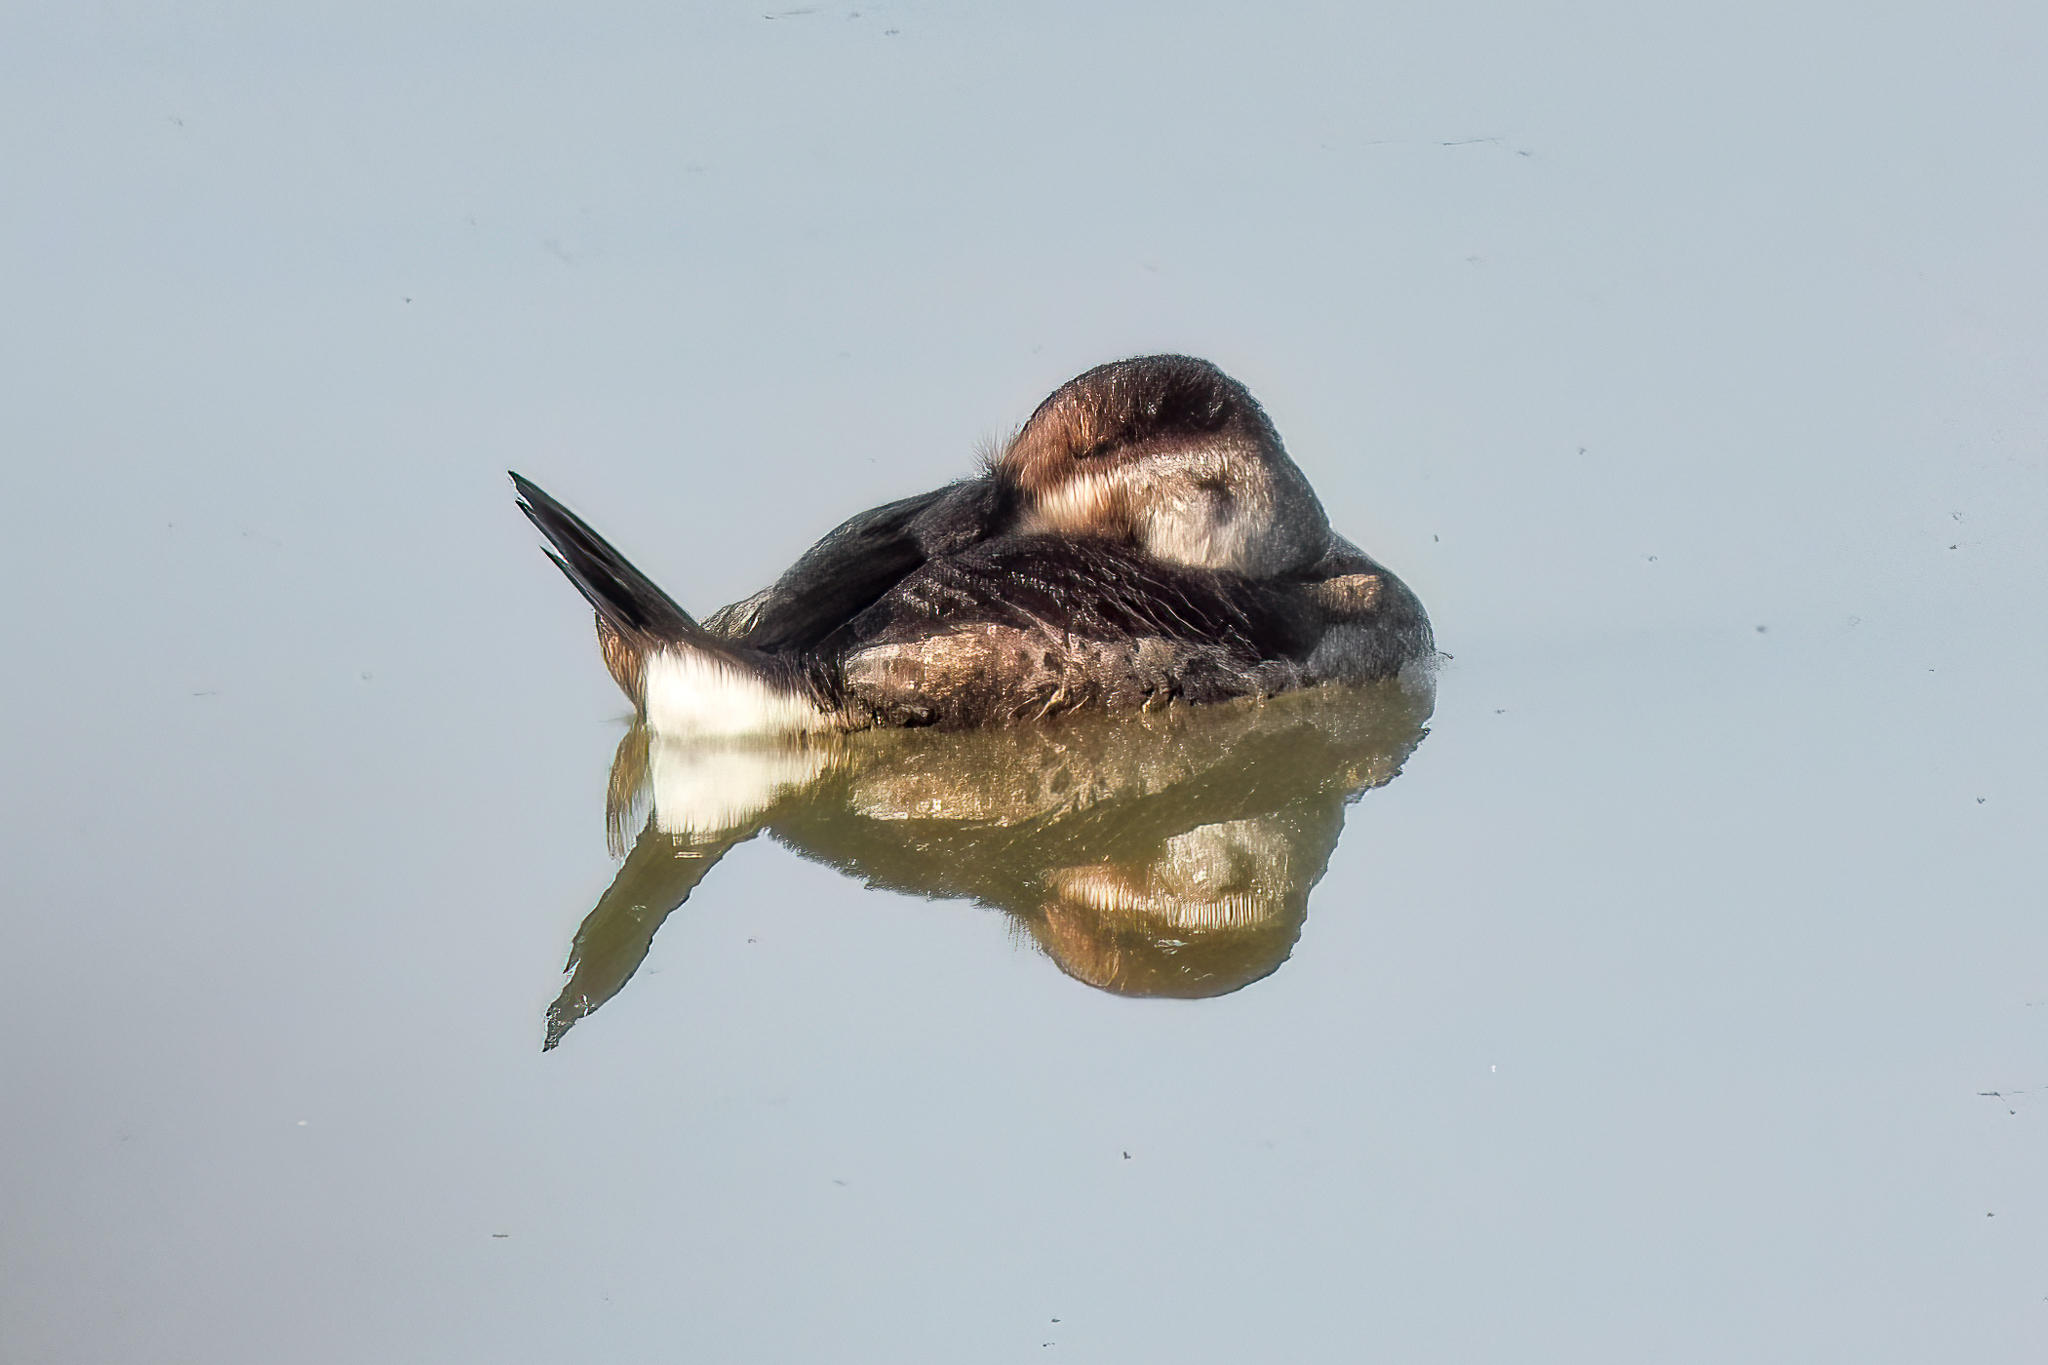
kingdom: Animalia
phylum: Chordata
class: Aves
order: Anseriformes
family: Anatidae
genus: Oxyura
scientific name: Oxyura jamaicensis
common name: Ruddy duck
